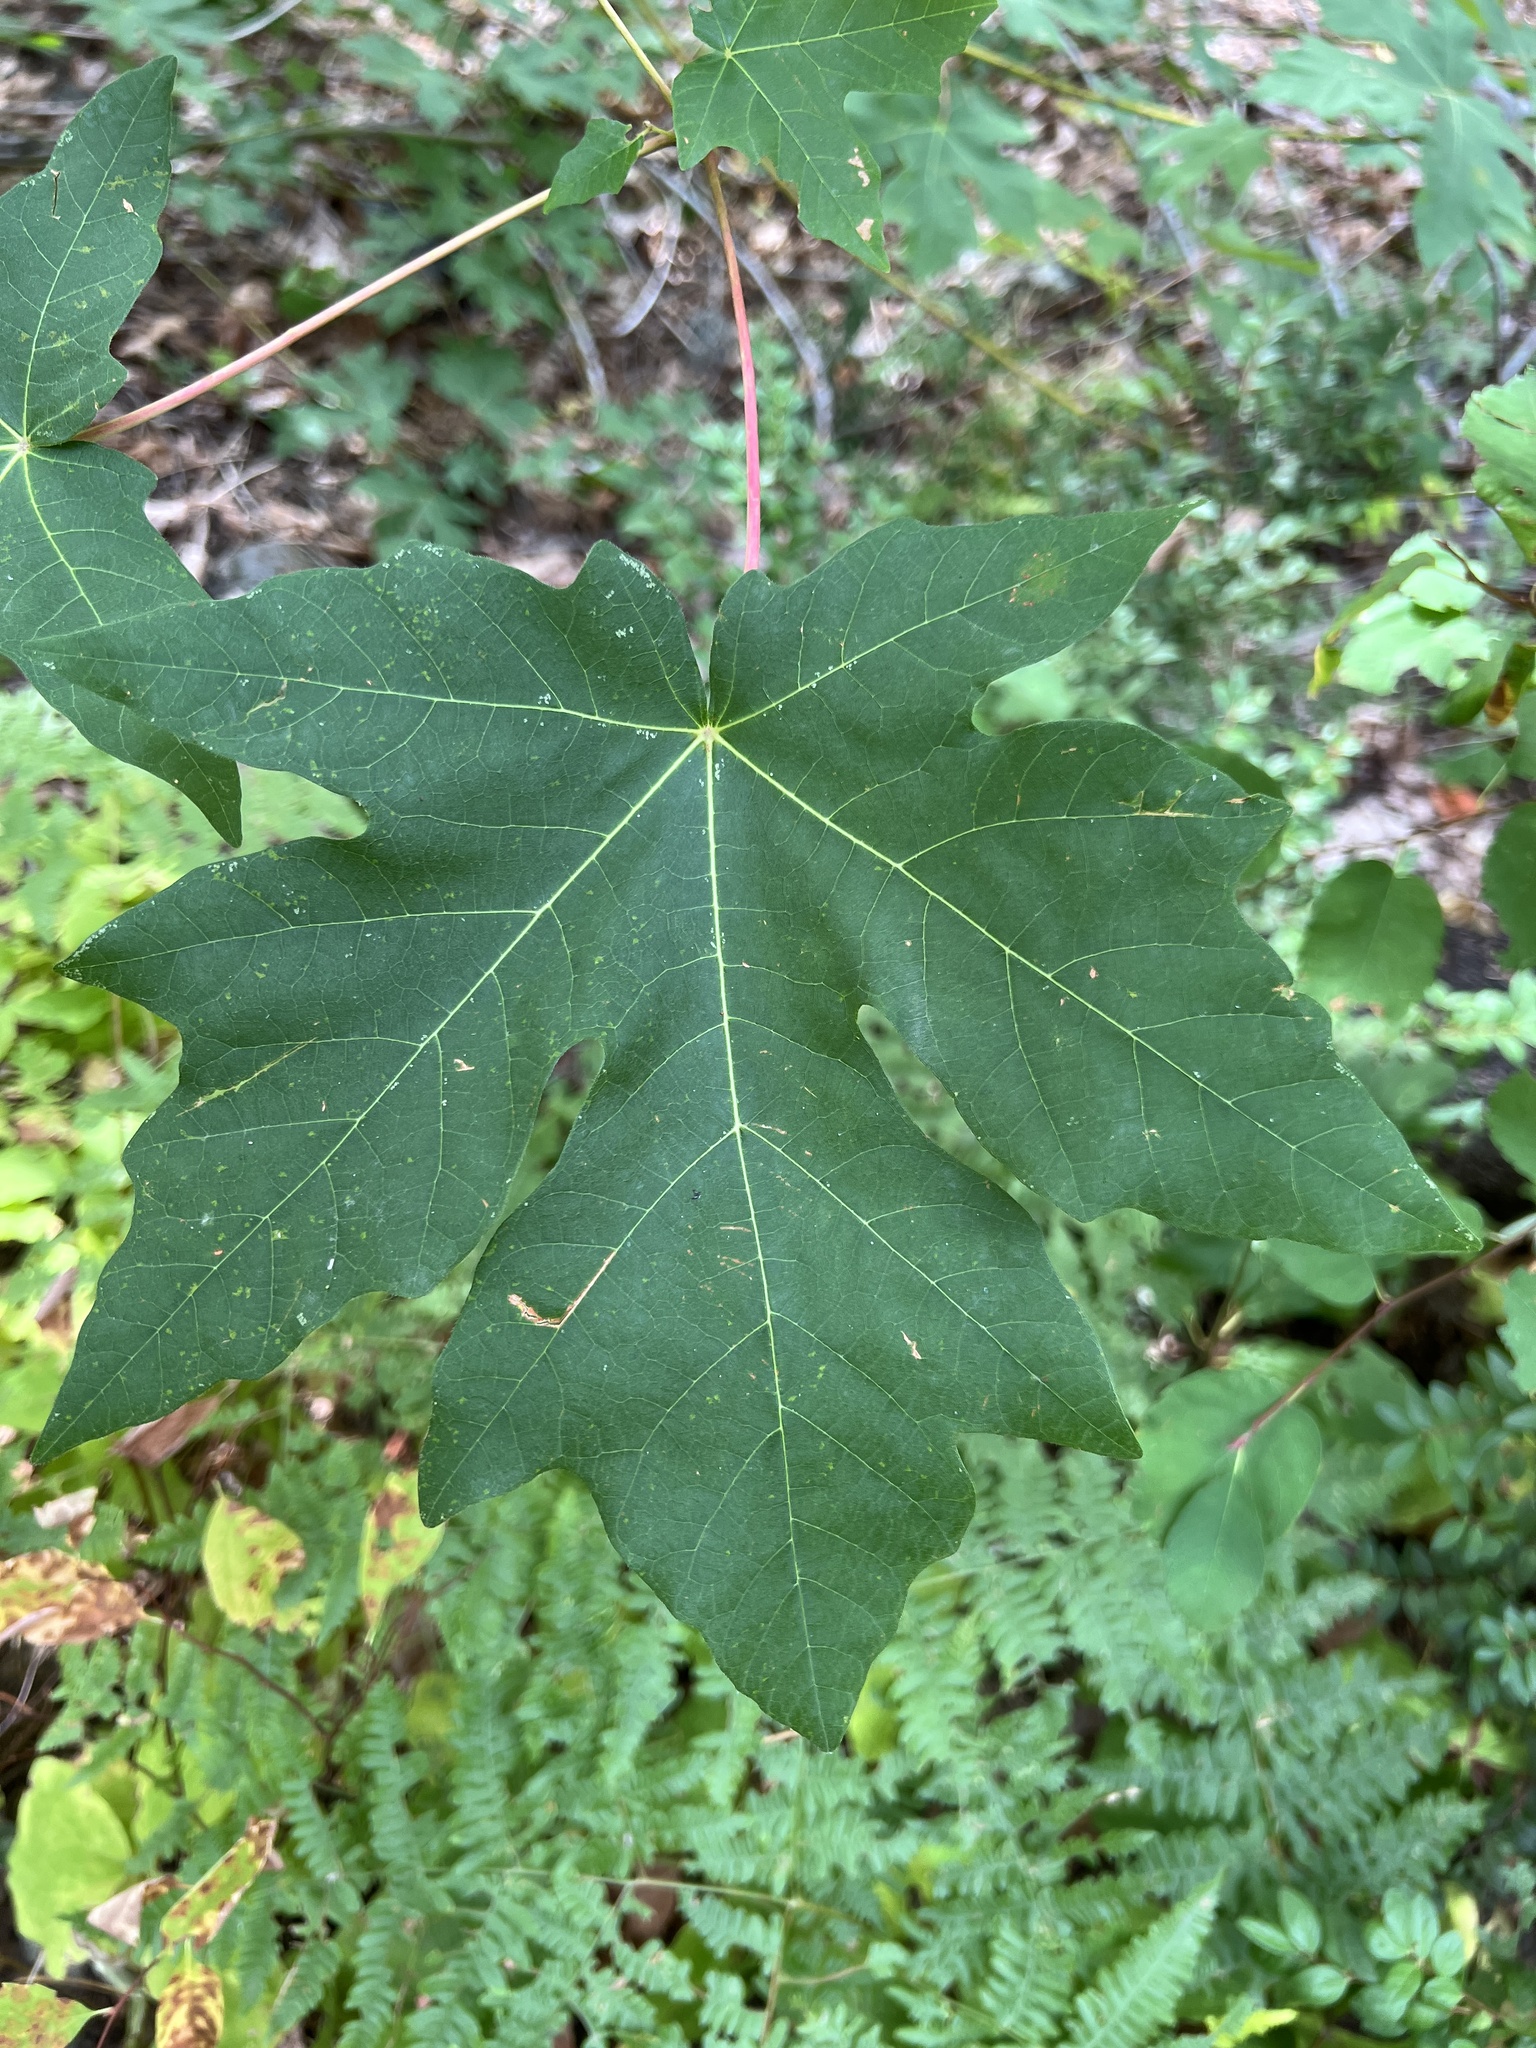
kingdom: Plantae
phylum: Tracheophyta
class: Magnoliopsida
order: Sapindales
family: Sapindaceae
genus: Acer
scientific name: Acer macrophyllum
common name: Oregon maple
